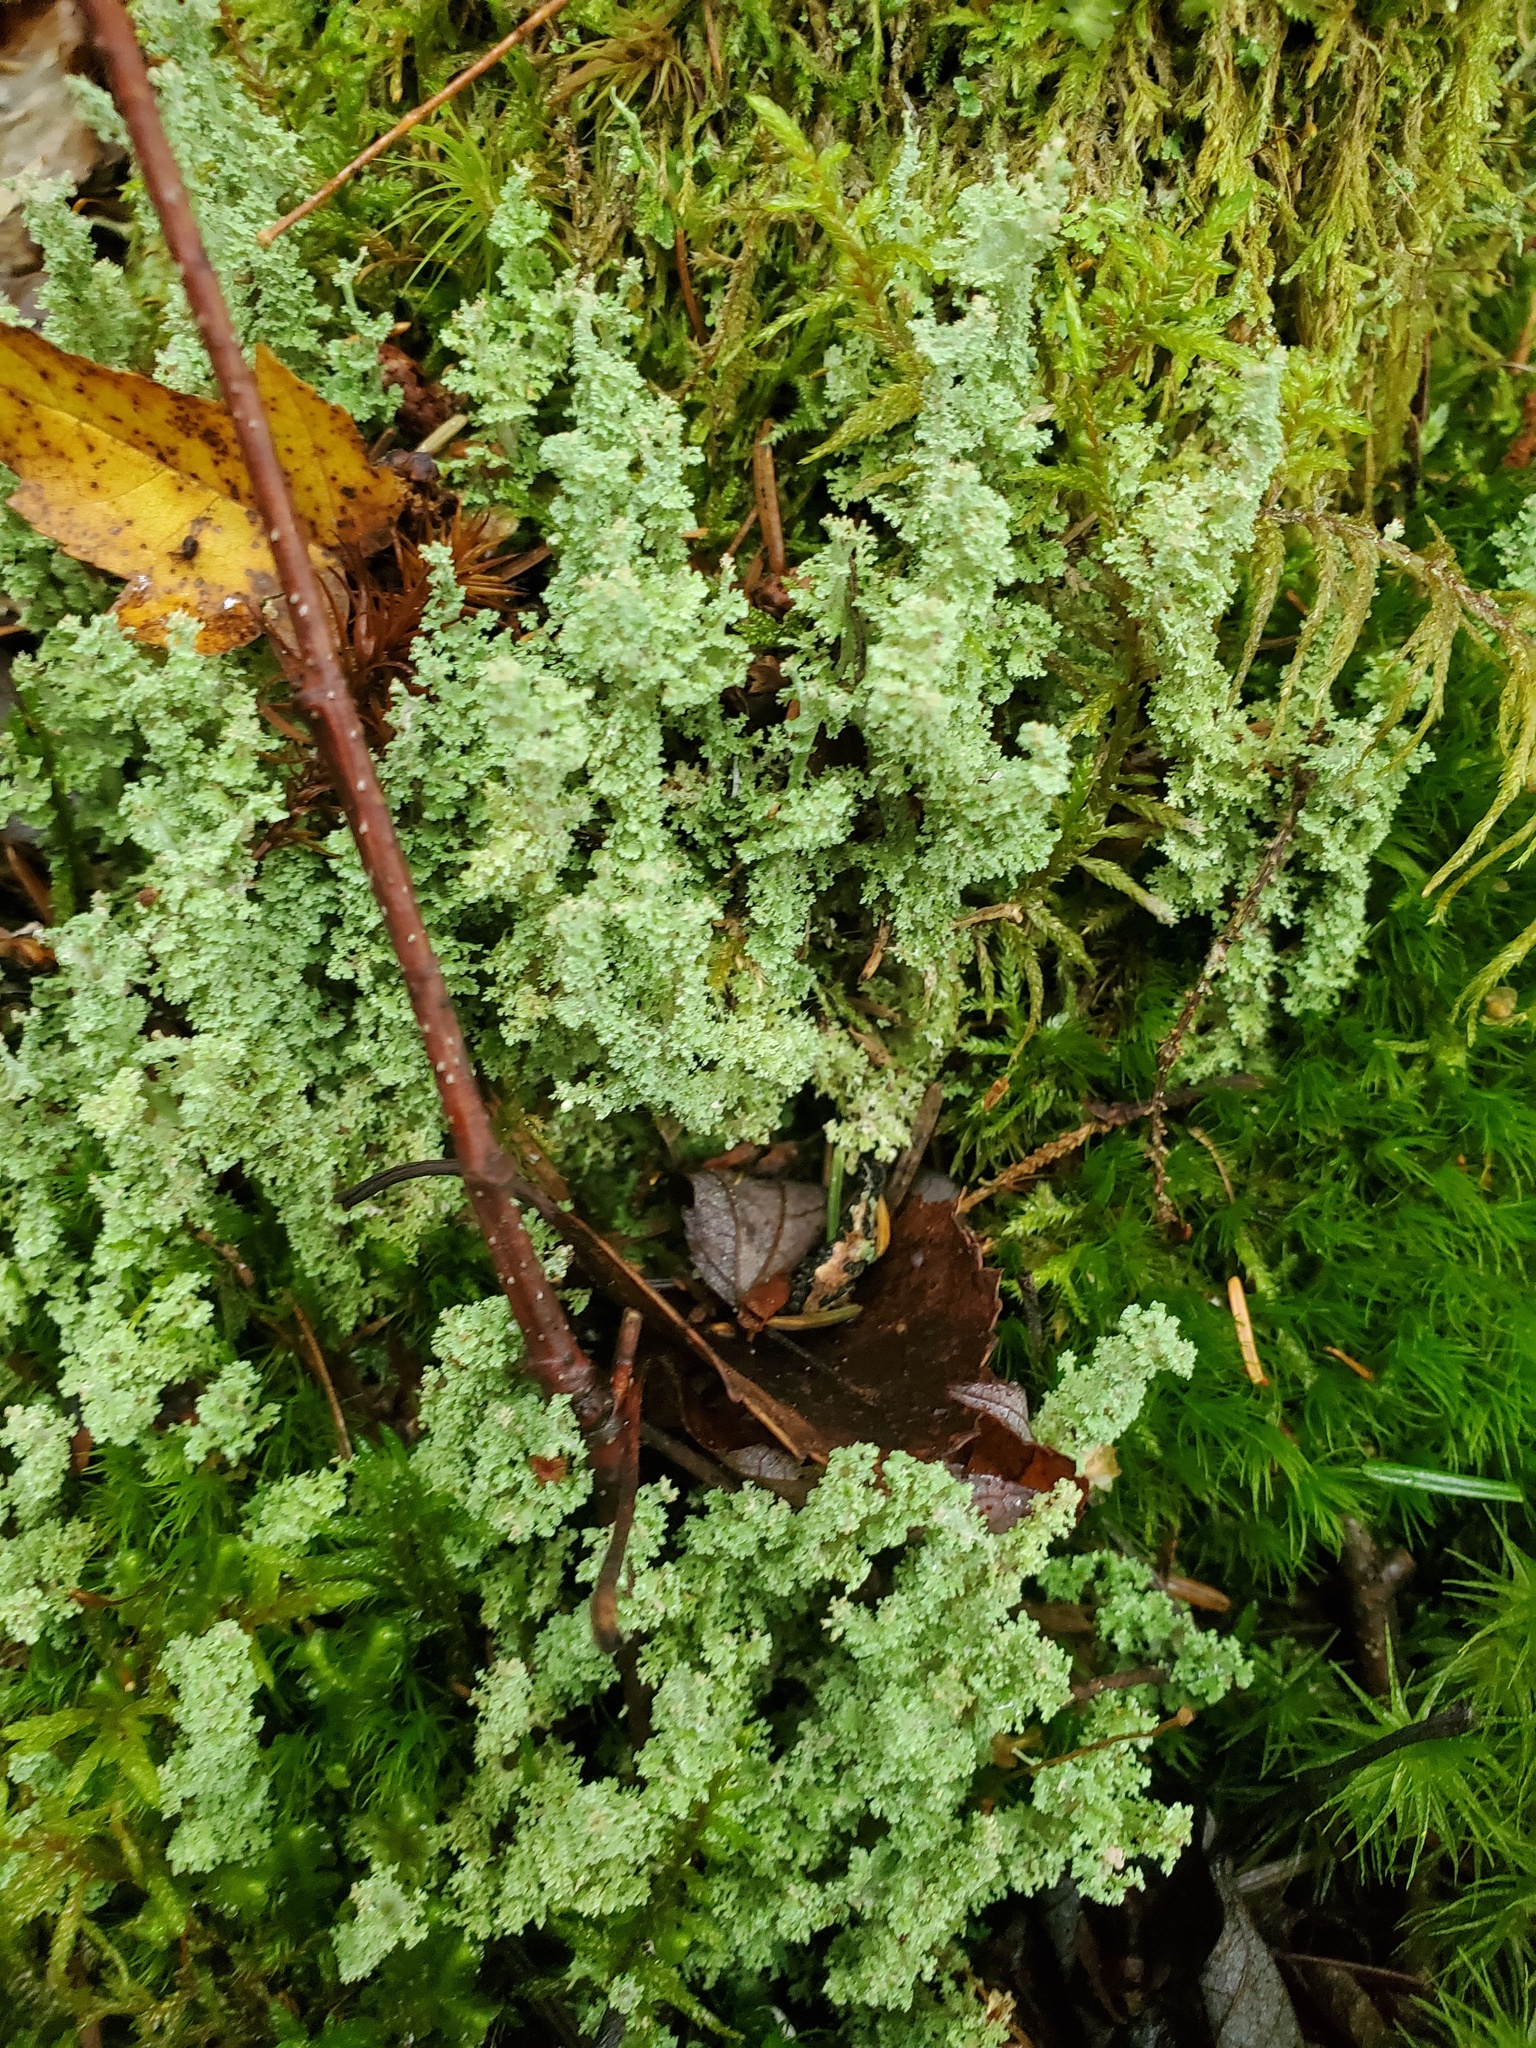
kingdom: Fungi
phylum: Ascomycota
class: Lecanoromycetes
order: Lecanorales
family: Cladoniaceae
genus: Cladonia
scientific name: Cladonia squamosa
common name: Dragon horn
